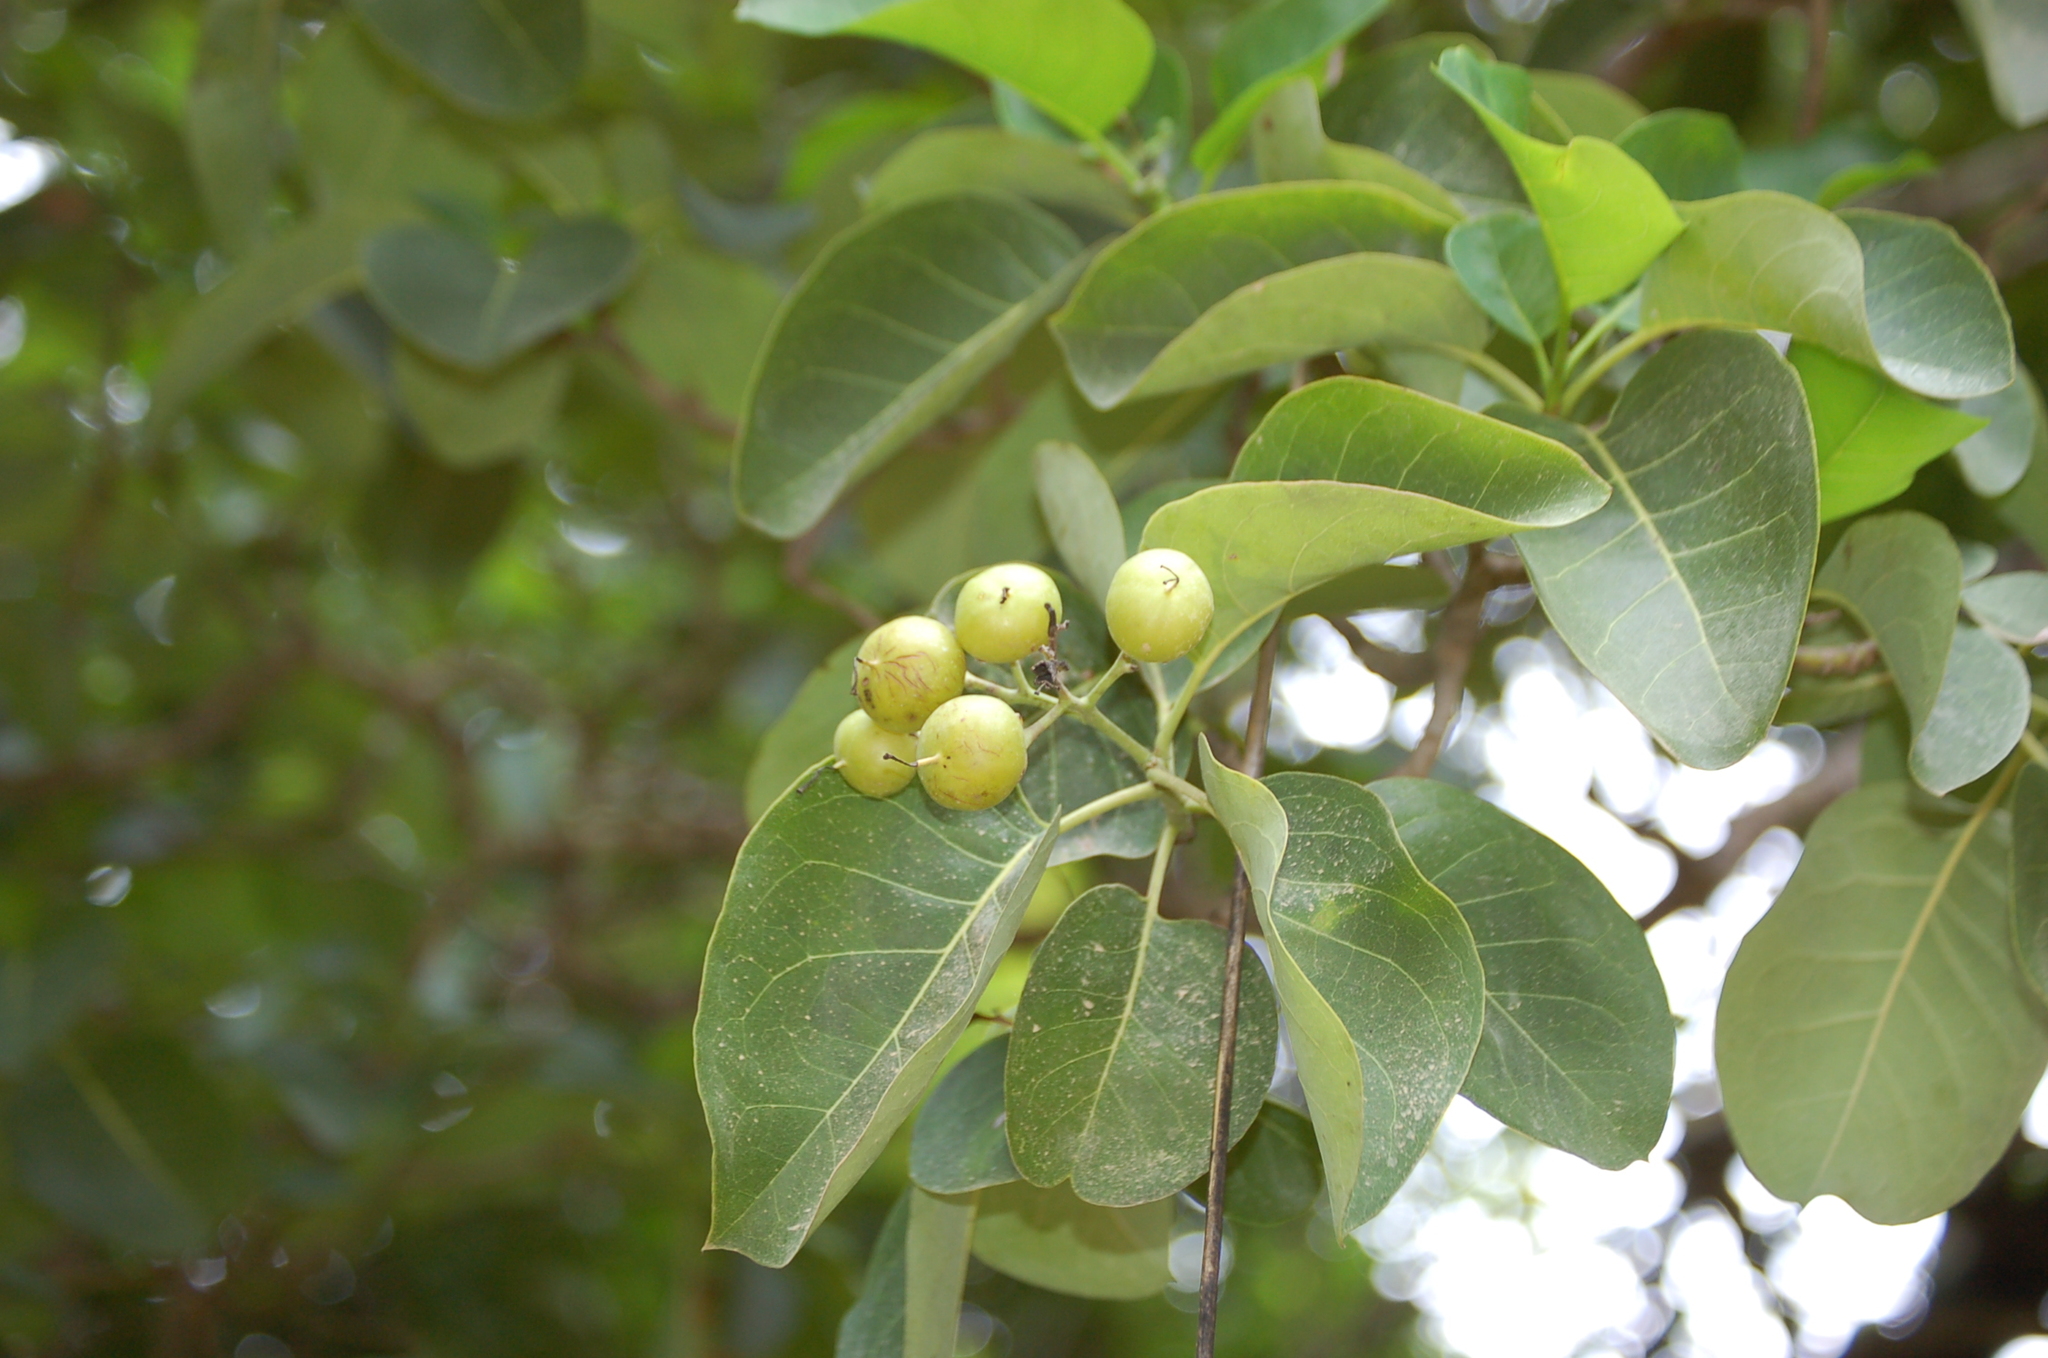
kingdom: Plantae
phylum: Tracheophyta
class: Magnoliopsida
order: Boraginales
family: Ehretiaceae
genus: Bourreria
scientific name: Bourreria huanita
